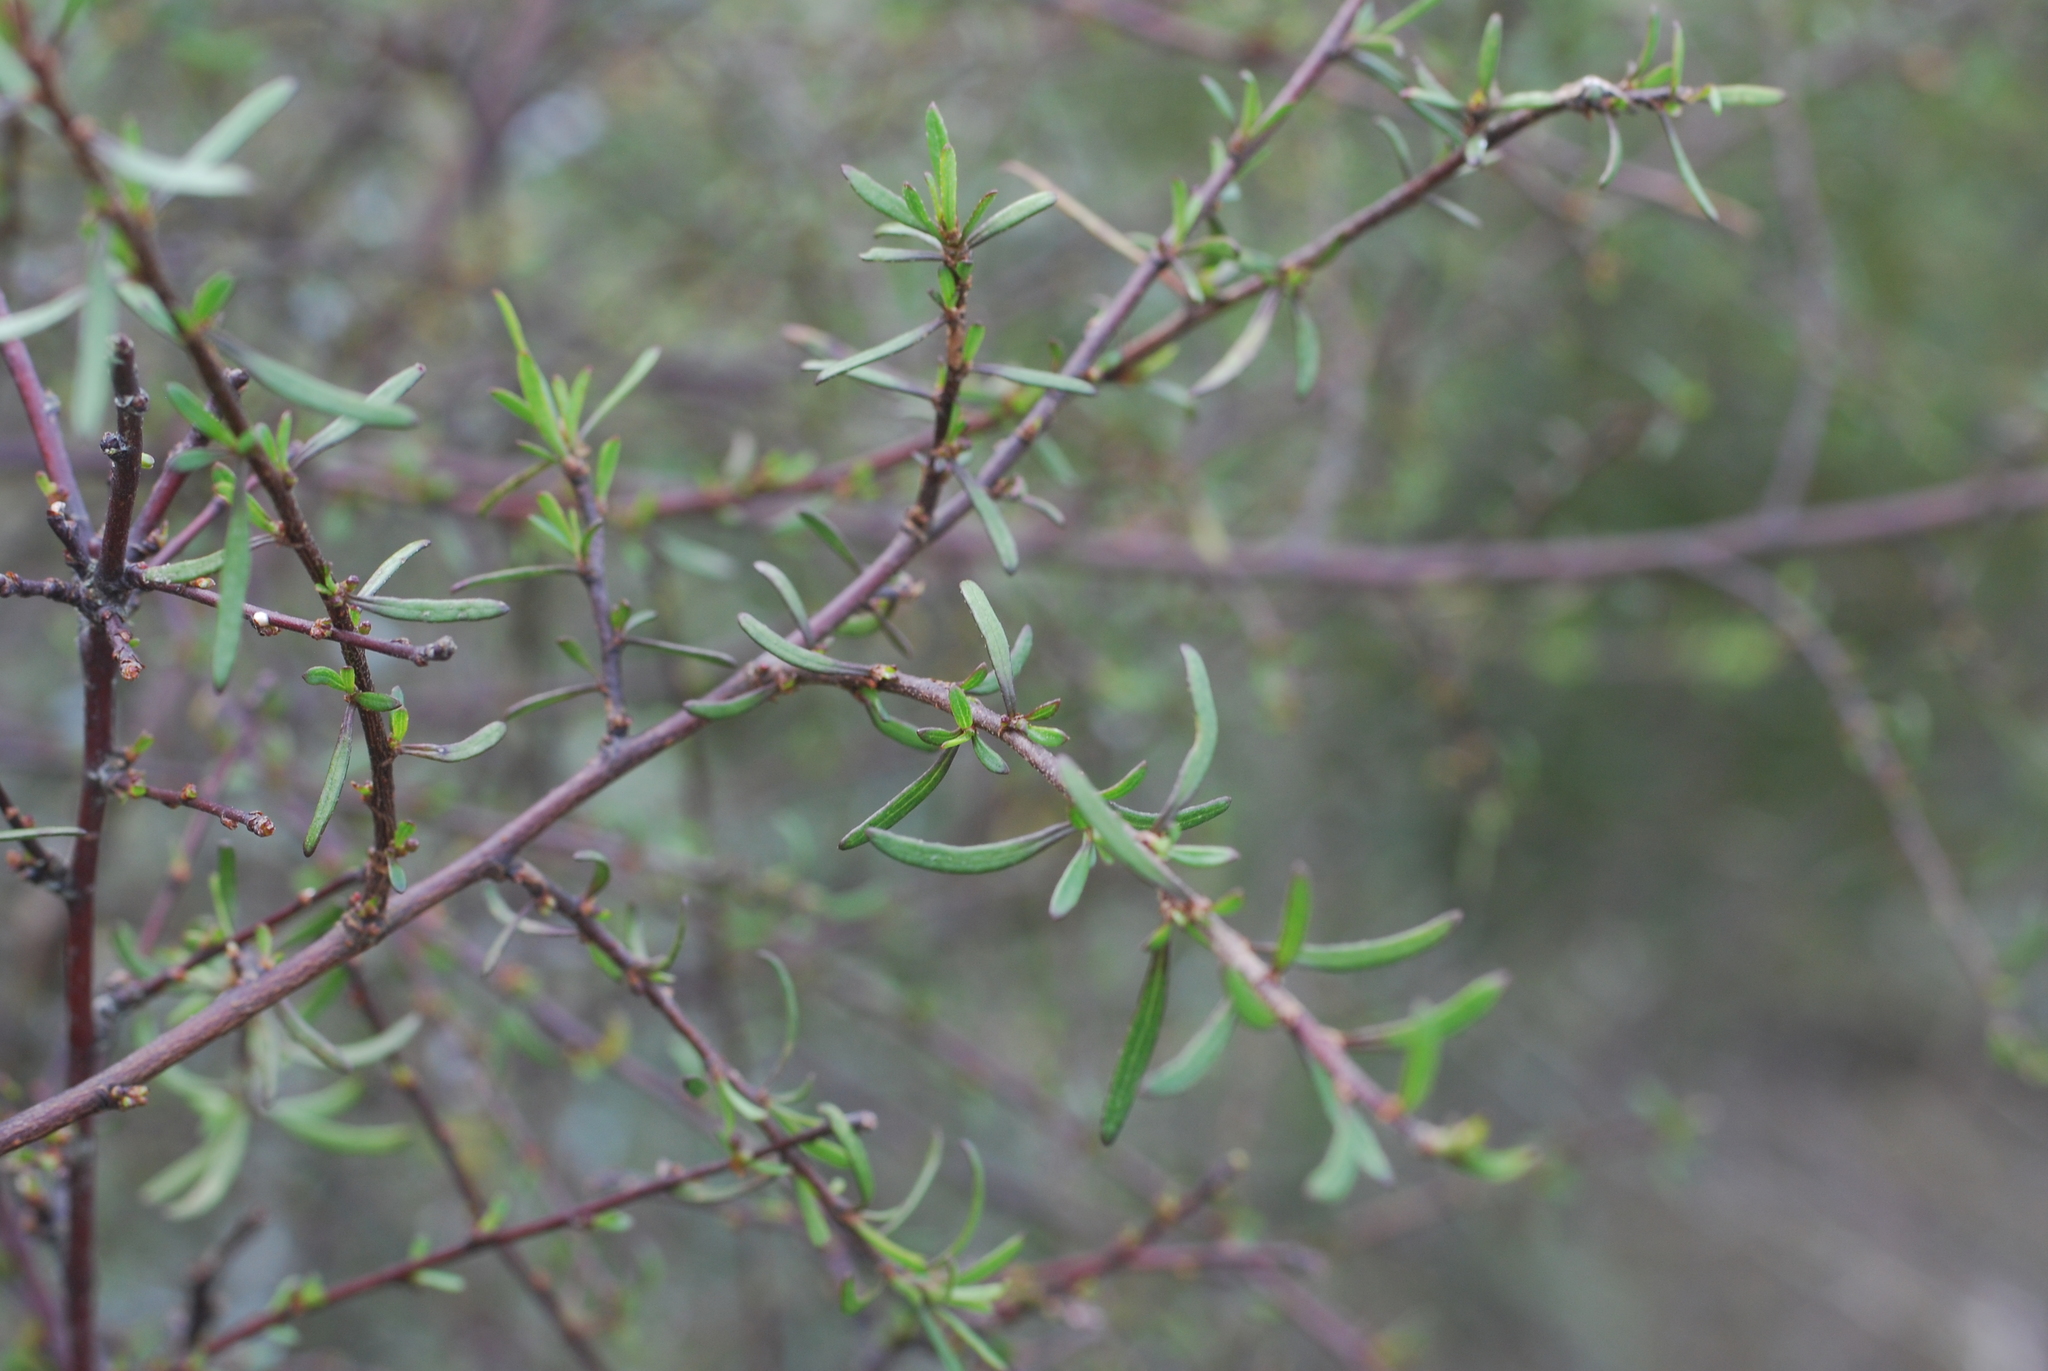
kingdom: Plantae
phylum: Tracheophyta
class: Magnoliopsida
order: Malvales
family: Malvaceae
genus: Plagianthus
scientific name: Plagianthus divaricatus
